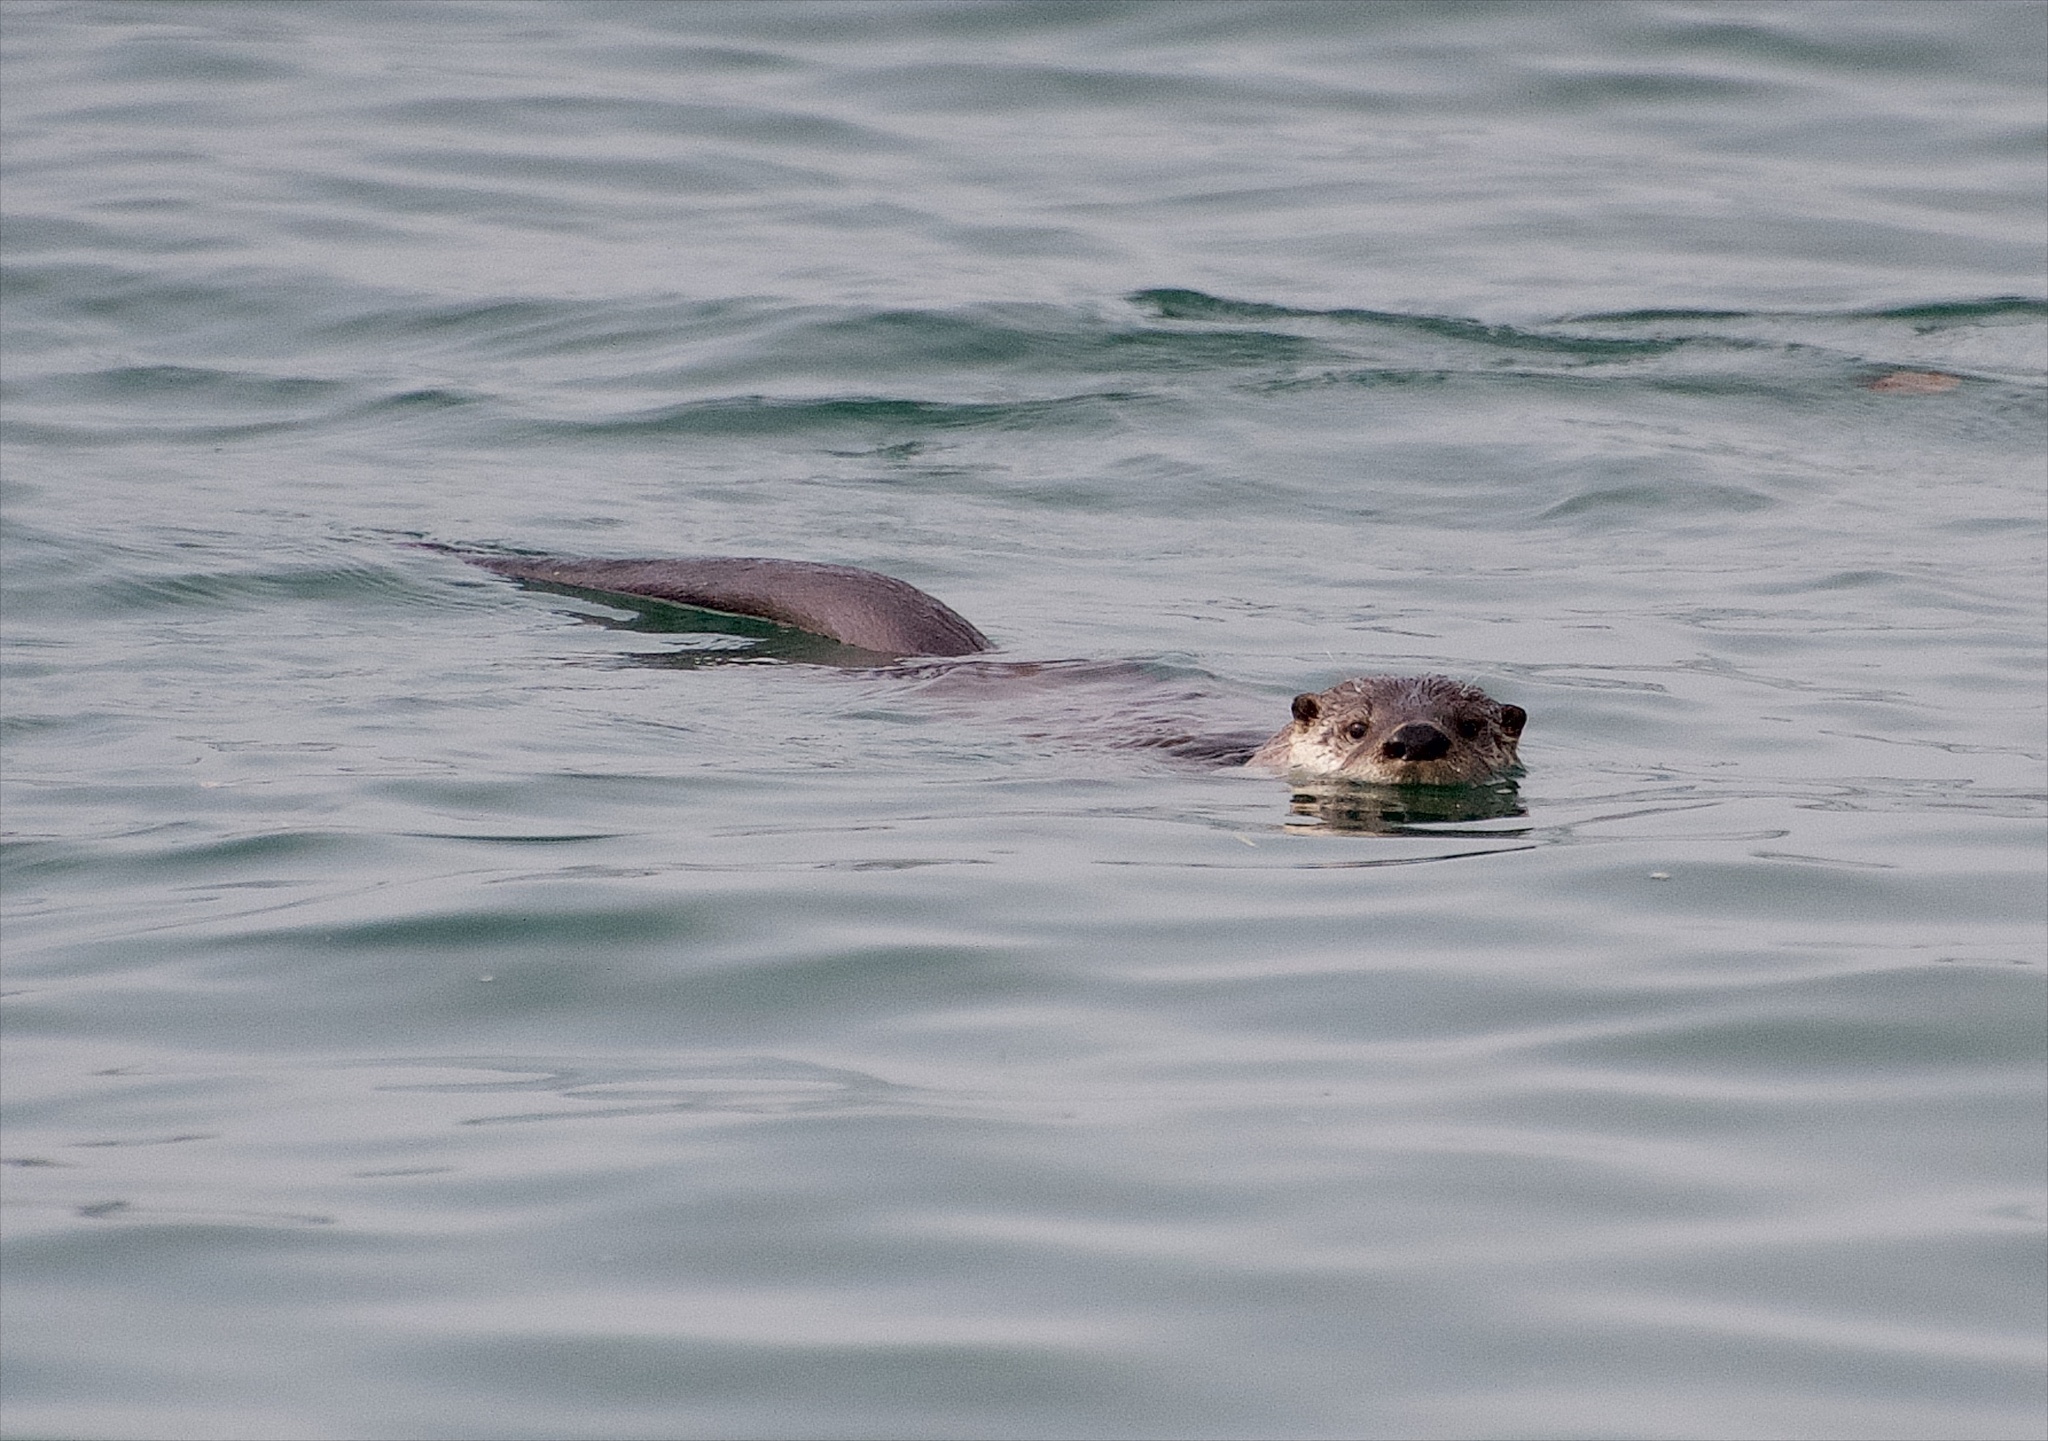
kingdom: Animalia
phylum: Chordata
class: Mammalia
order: Carnivora
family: Mustelidae
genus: Lontra
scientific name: Lontra canadensis
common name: North american river otter
